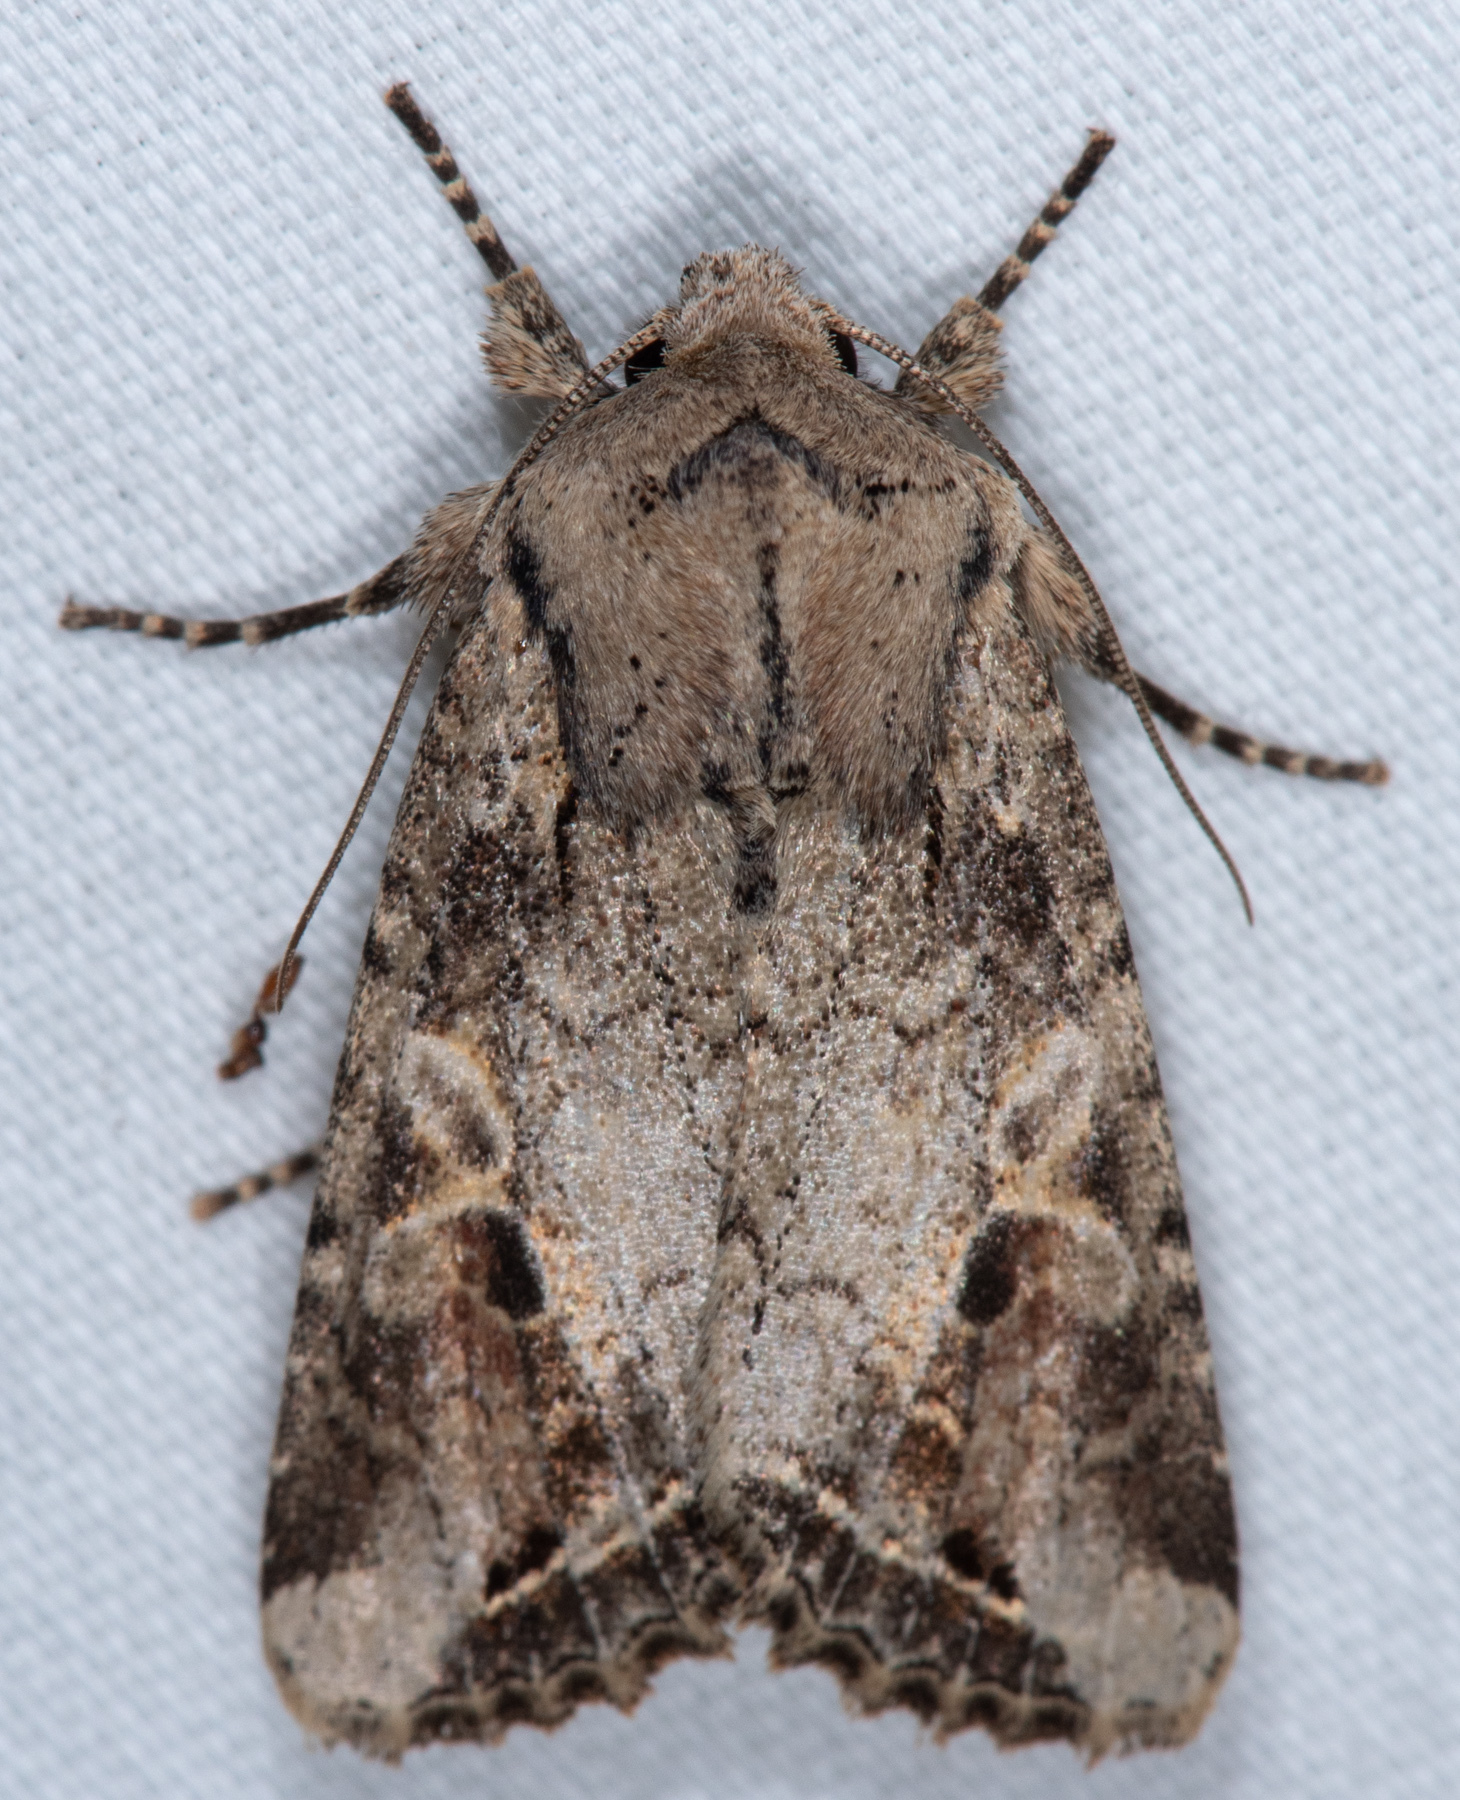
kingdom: Animalia
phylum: Arthropoda
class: Insecta
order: Lepidoptera
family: Noctuidae
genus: Egira
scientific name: Egira rubrica
